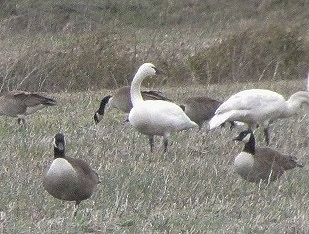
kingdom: Animalia
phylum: Chordata
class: Aves
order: Anseriformes
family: Anatidae
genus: Cygnus
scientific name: Cygnus columbianus
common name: Tundra swan
